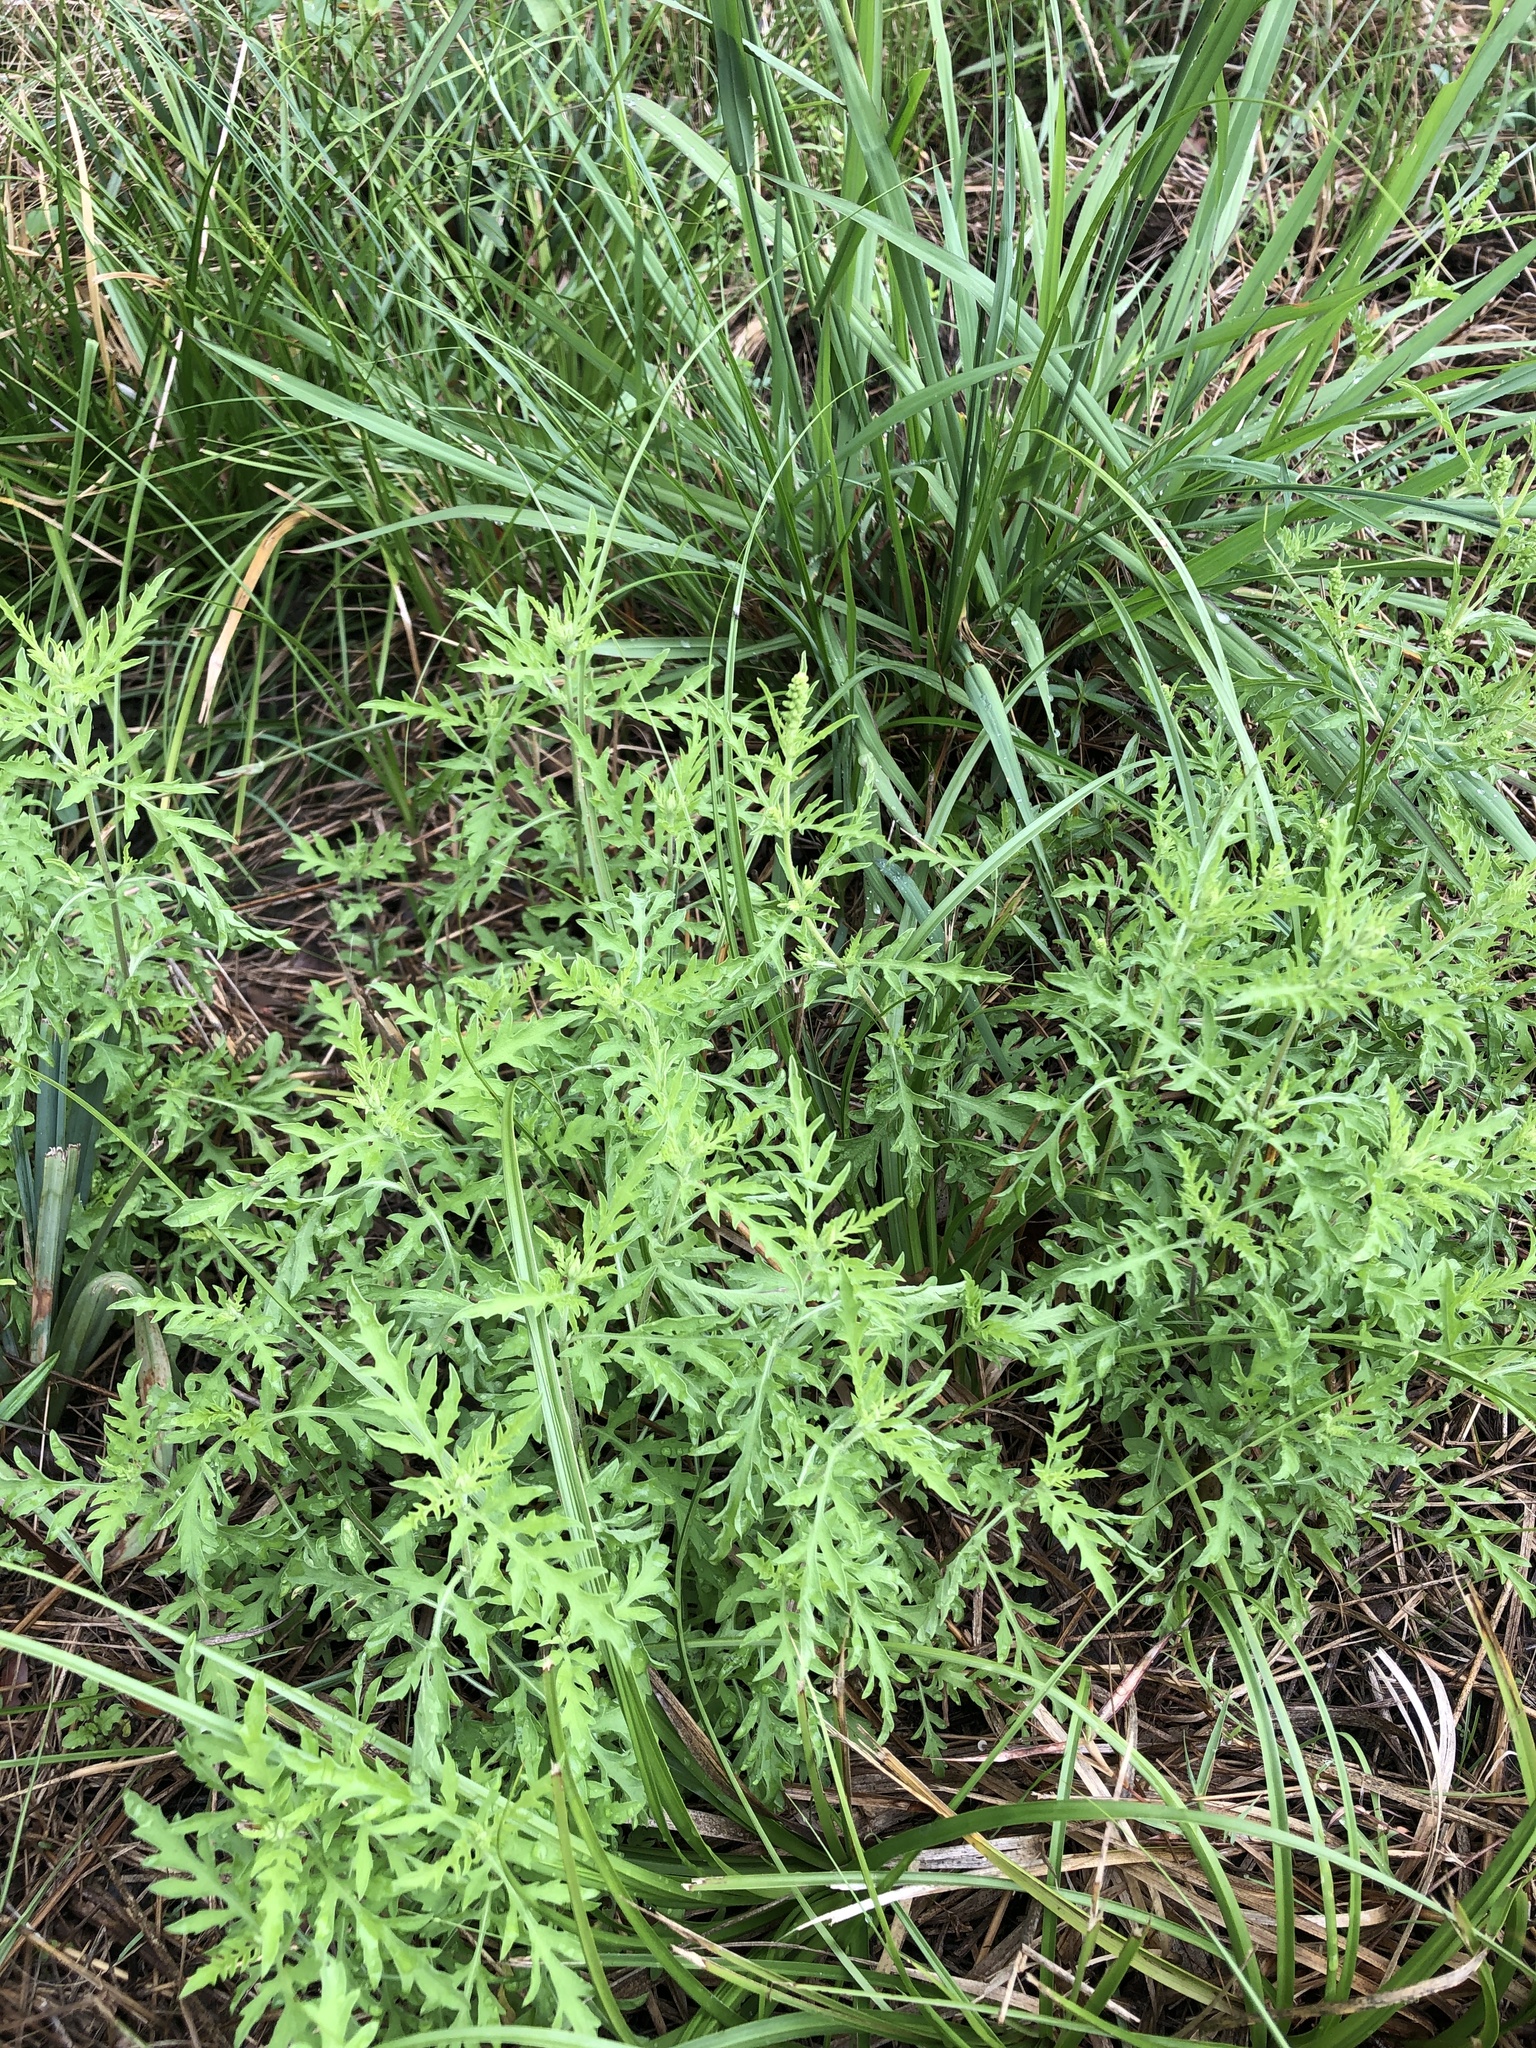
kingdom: Plantae
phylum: Tracheophyta
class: Magnoliopsida
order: Asterales
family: Asteraceae
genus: Ambrosia
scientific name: Ambrosia artemisiifolia
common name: Annual ragweed
